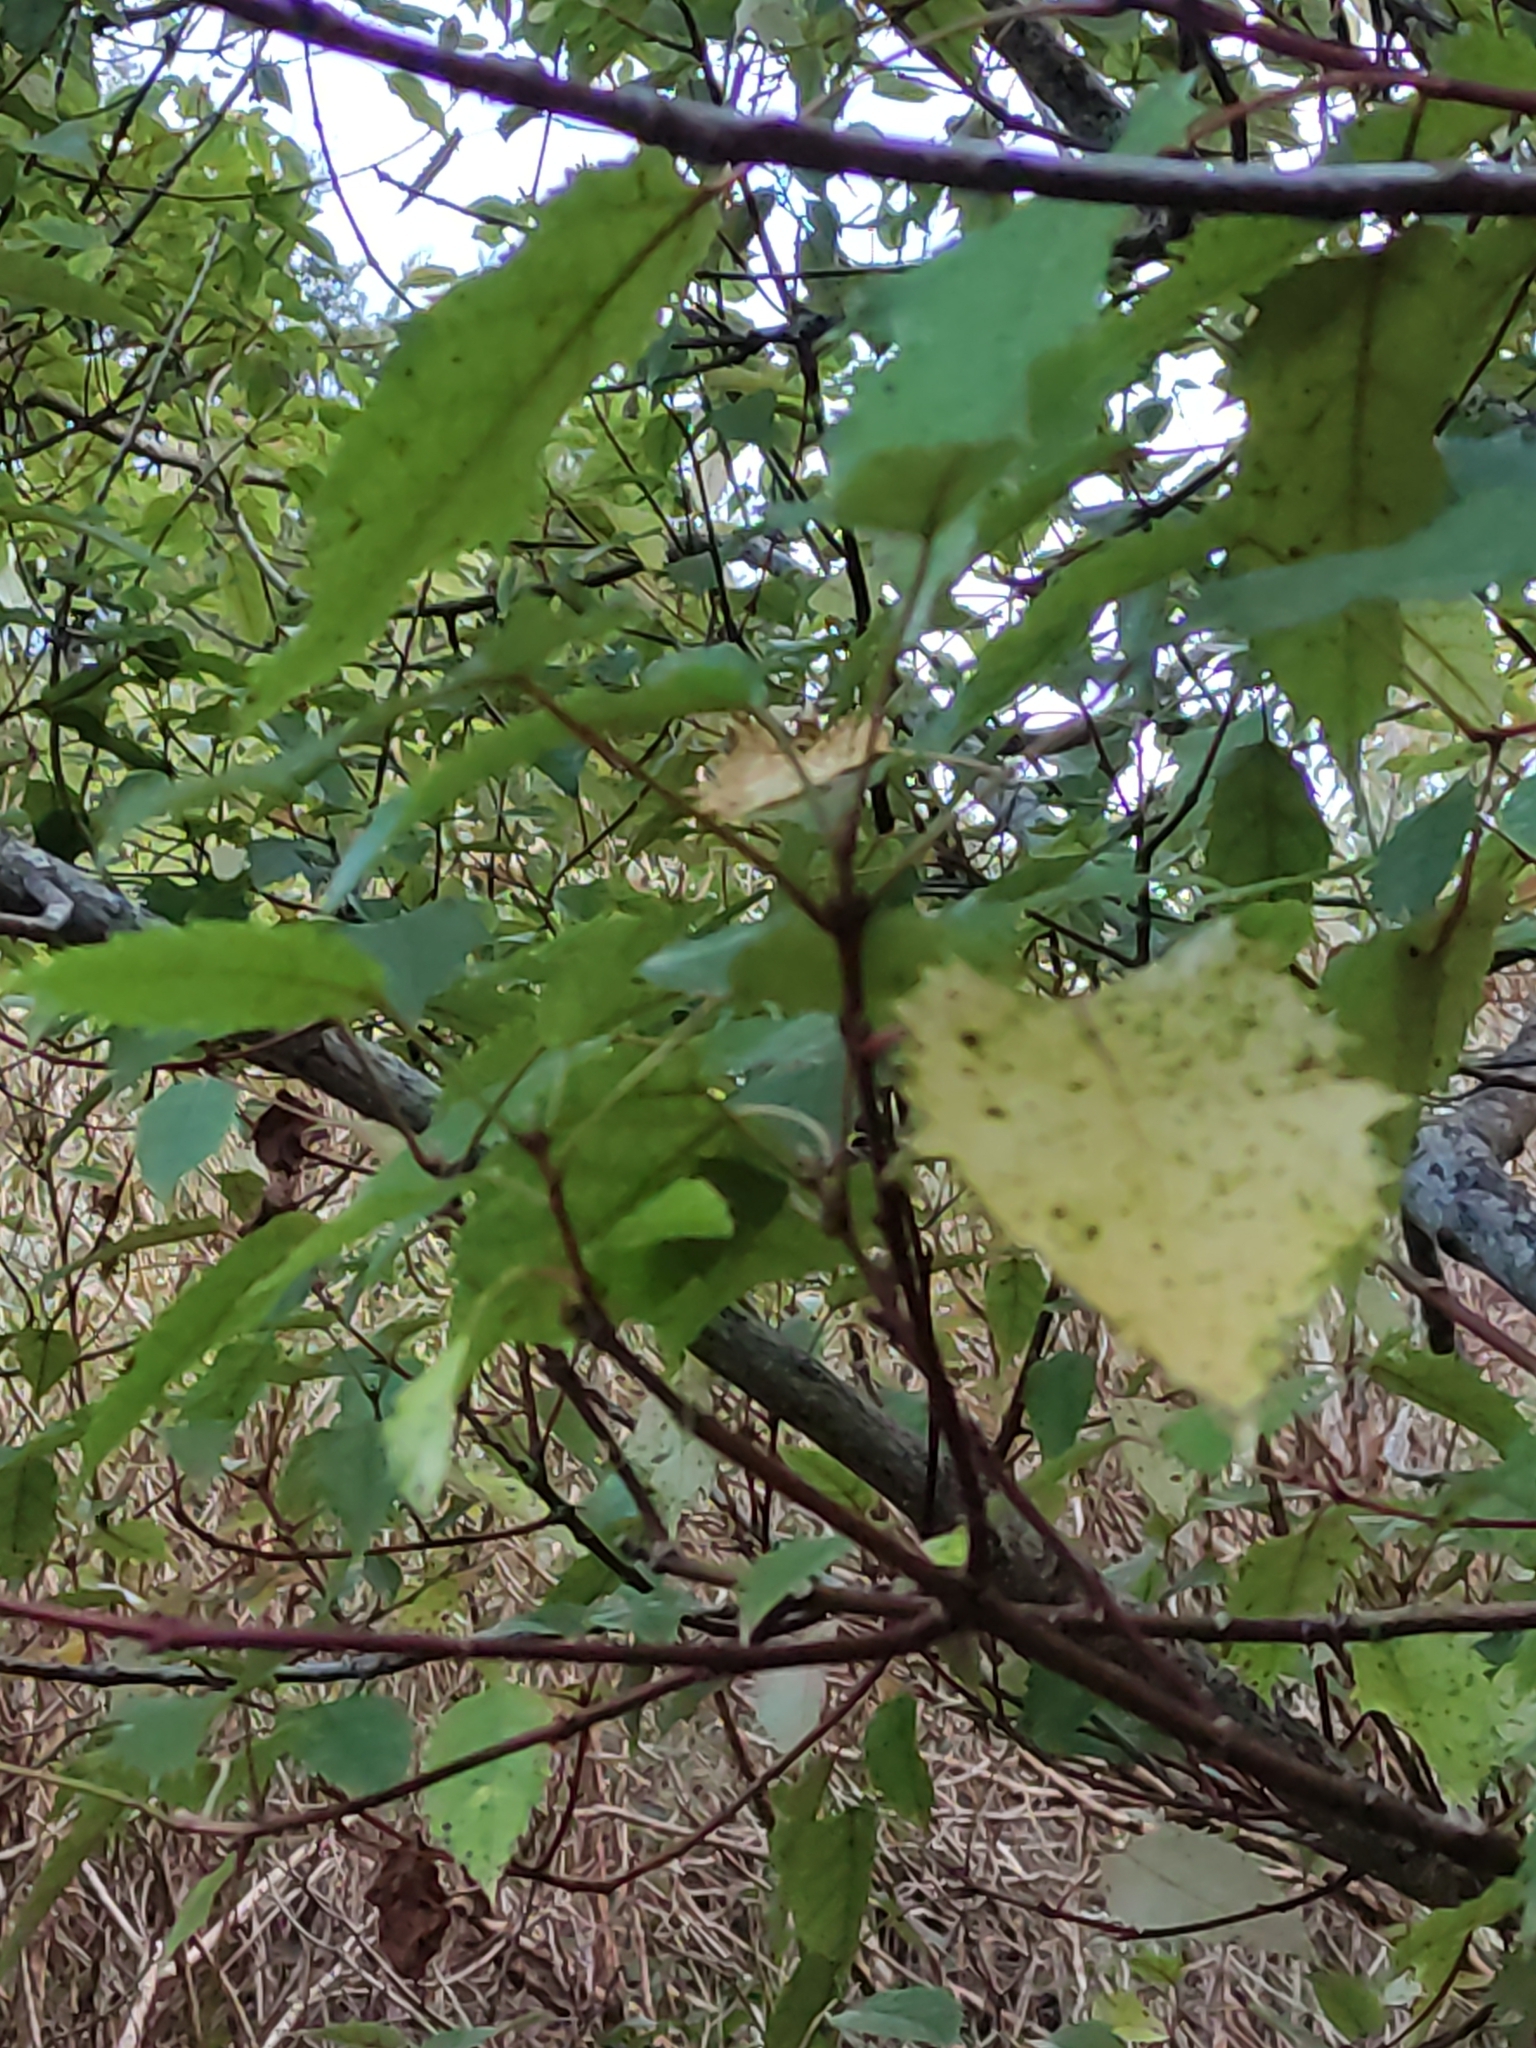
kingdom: Plantae
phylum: Tracheophyta
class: Magnoliopsida
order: Oxalidales
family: Elaeocarpaceae
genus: Aristotelia
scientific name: Aristotelia serrata
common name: New zealand wineberry
